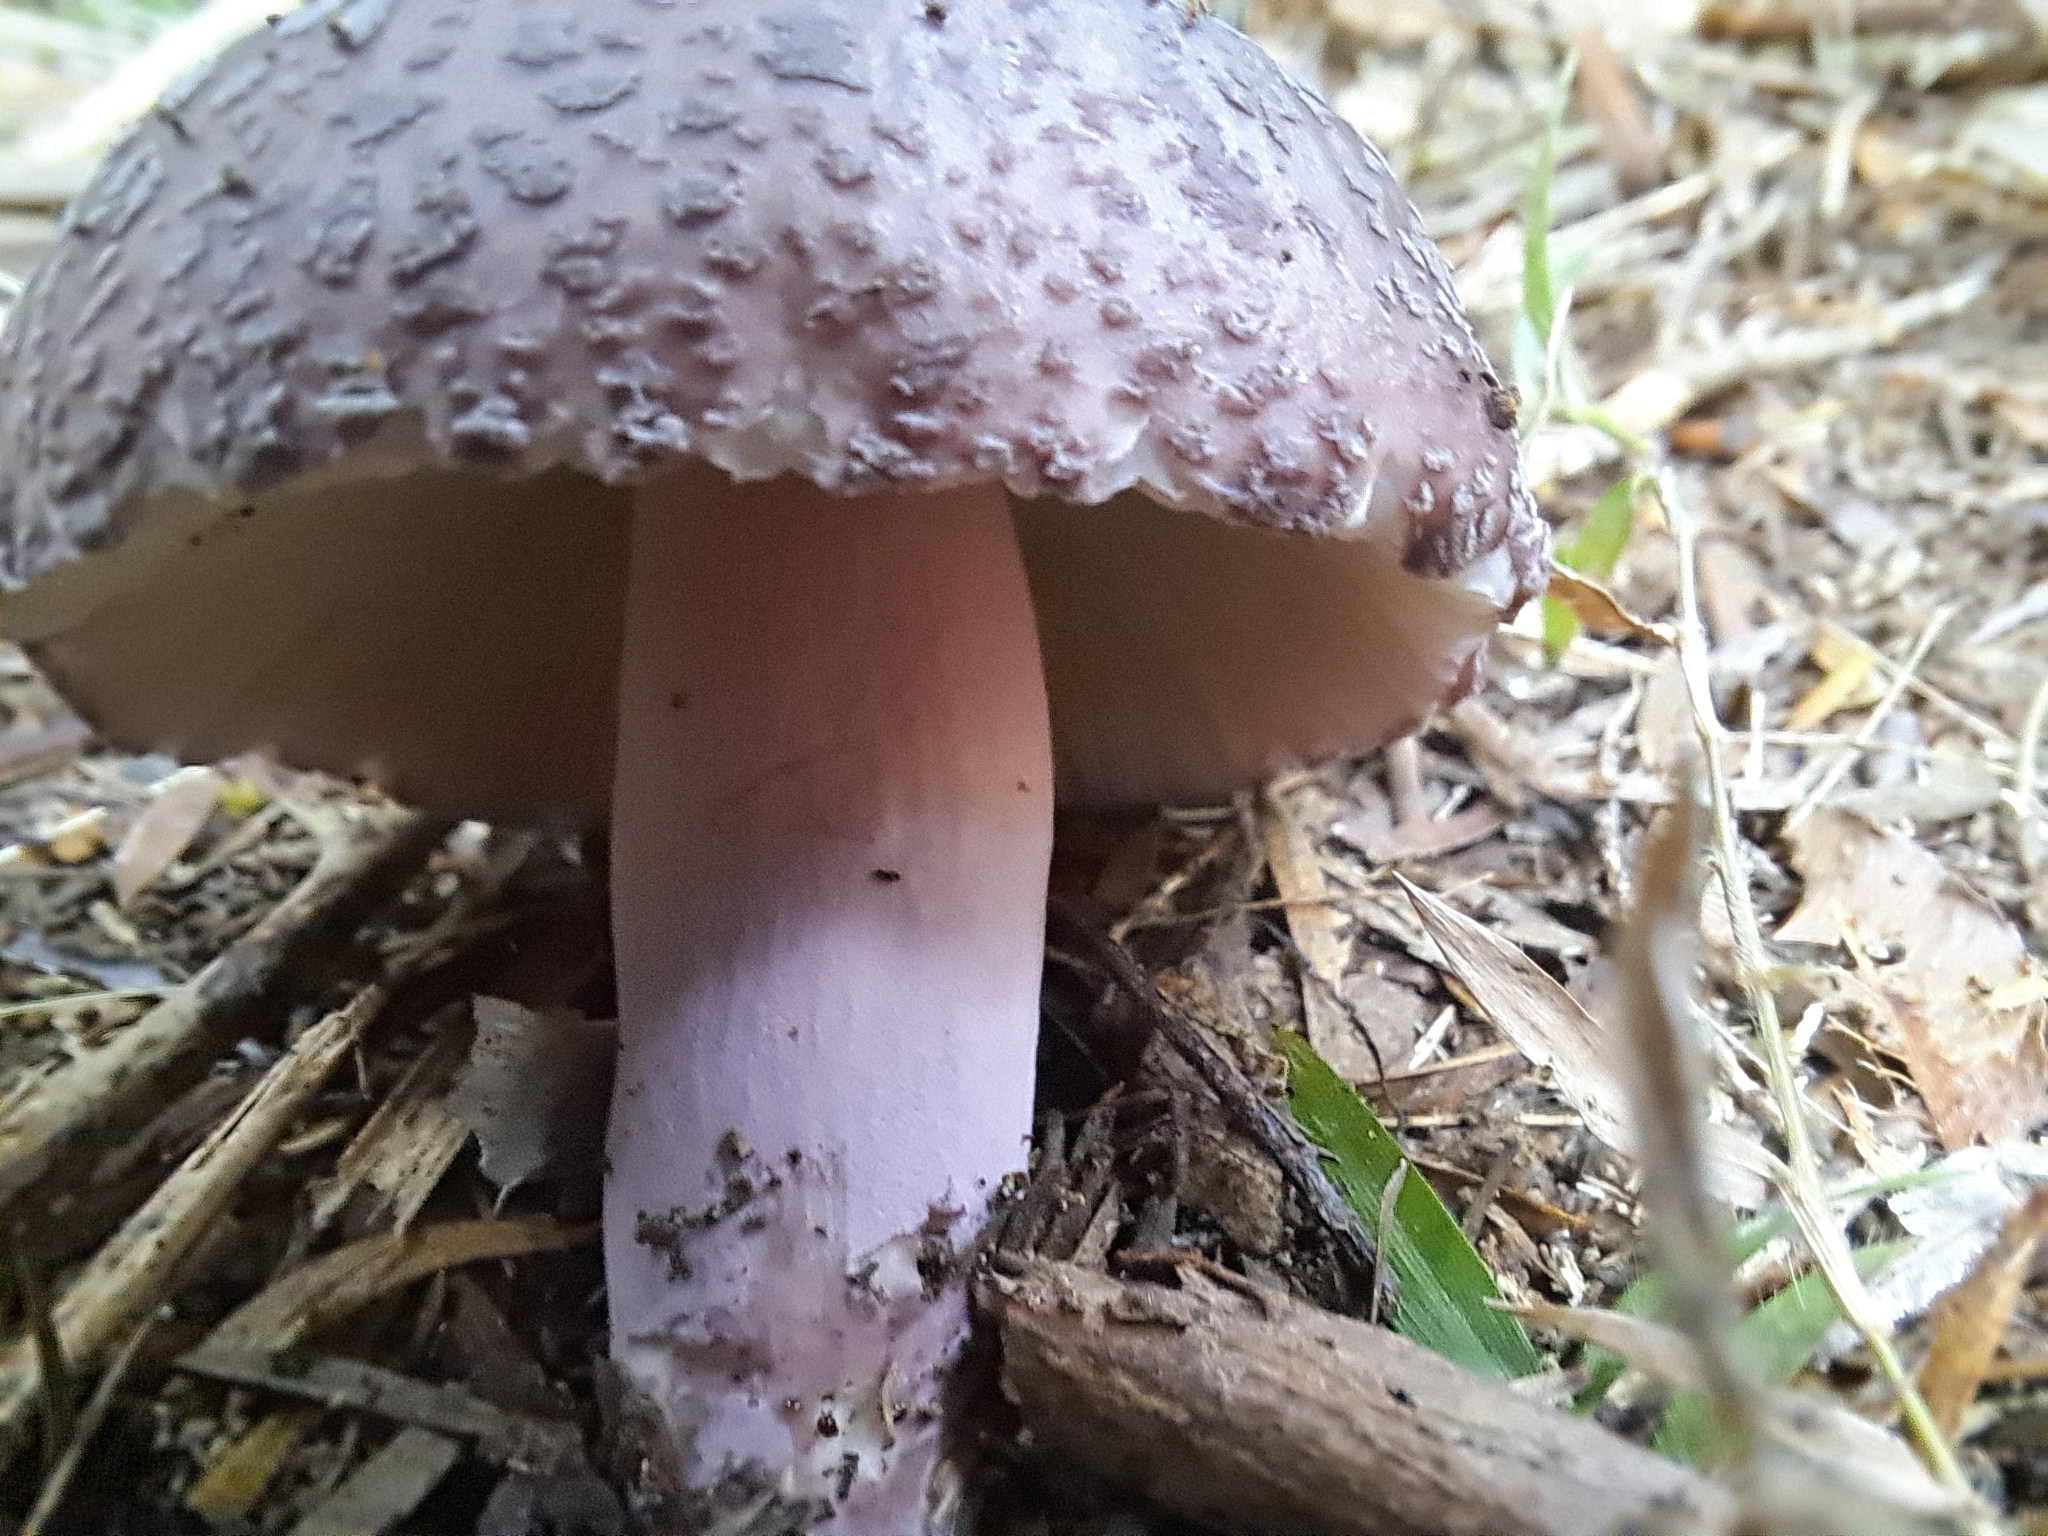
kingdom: Fungi
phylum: Basidiomycota
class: Agaricomycetes
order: Russulales
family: Russulaceae
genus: Russula
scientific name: Russula griseoviridis
